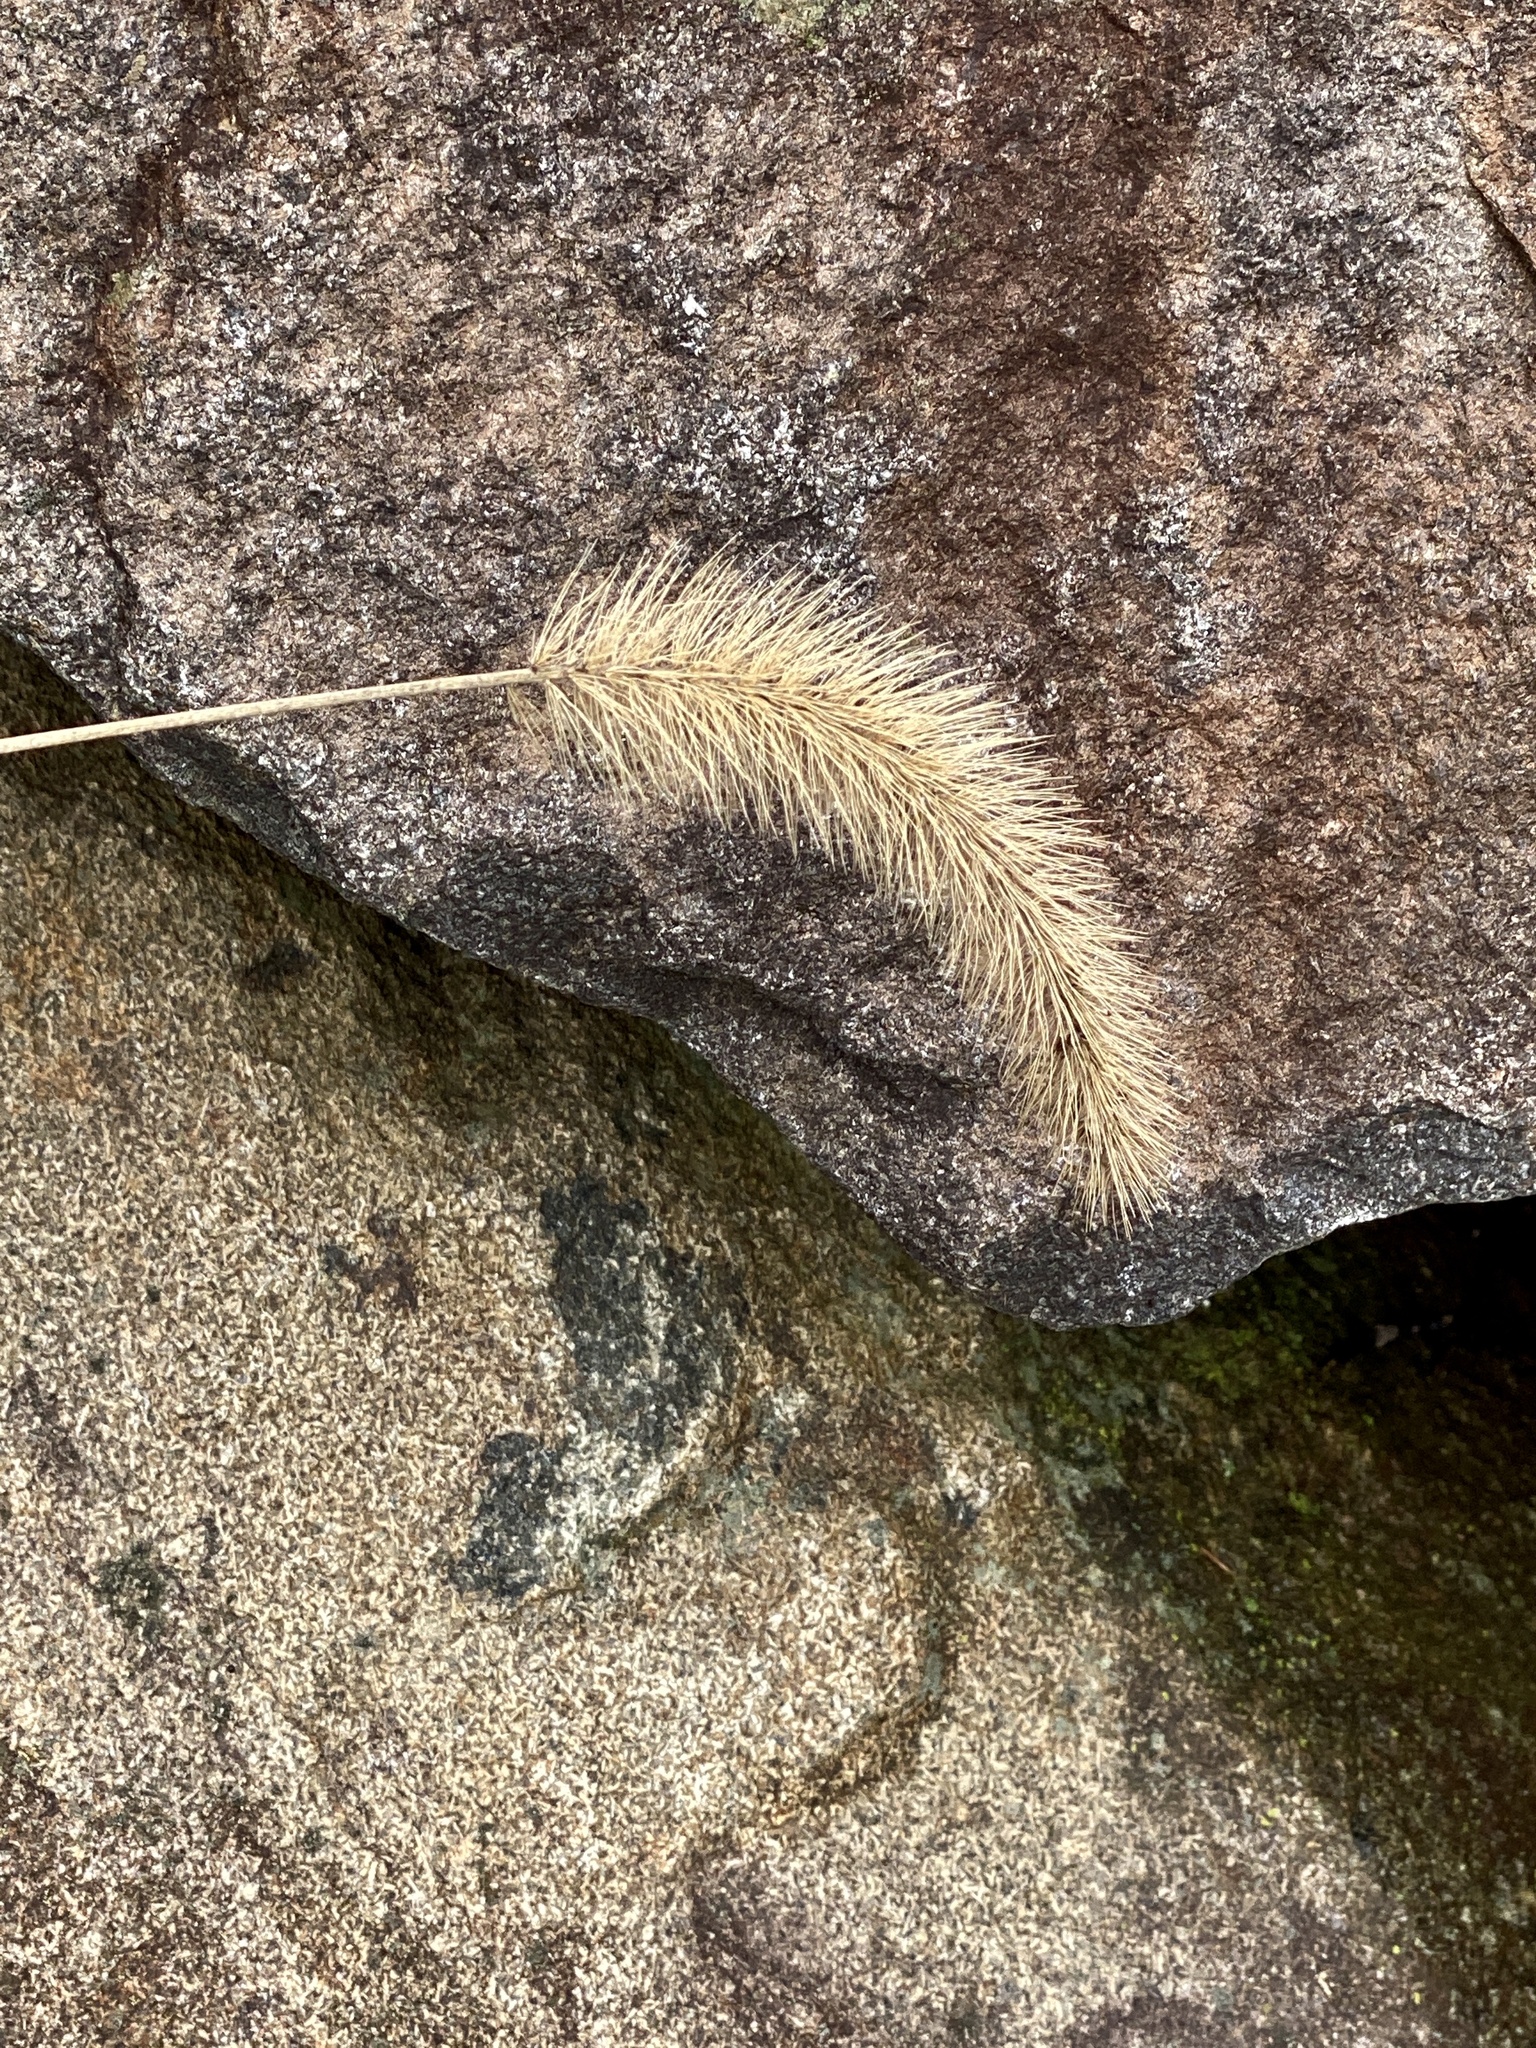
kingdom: Plantae
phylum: Tracheophyta
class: Liliopsida
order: Poales
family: Poaceae
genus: Setaria
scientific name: Setaria faberi
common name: Nodding bristle-grass
